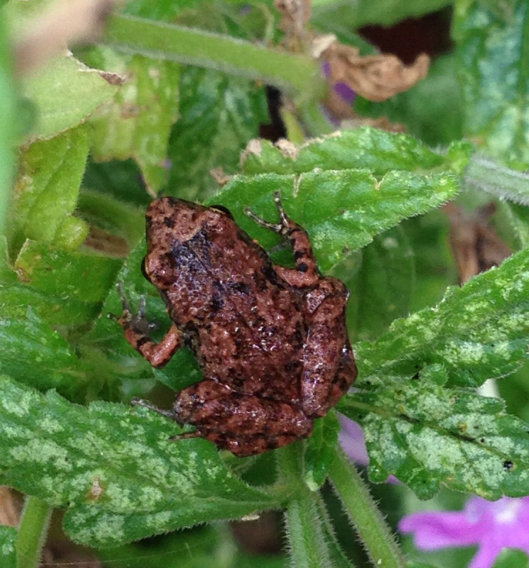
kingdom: Animalia
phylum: Chordata
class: Amphibia
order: Anura
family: Eleutherodactylidae
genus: Eleutherodactylus
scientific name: Eleutherodactylus planirostris
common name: Greenhouse frog
